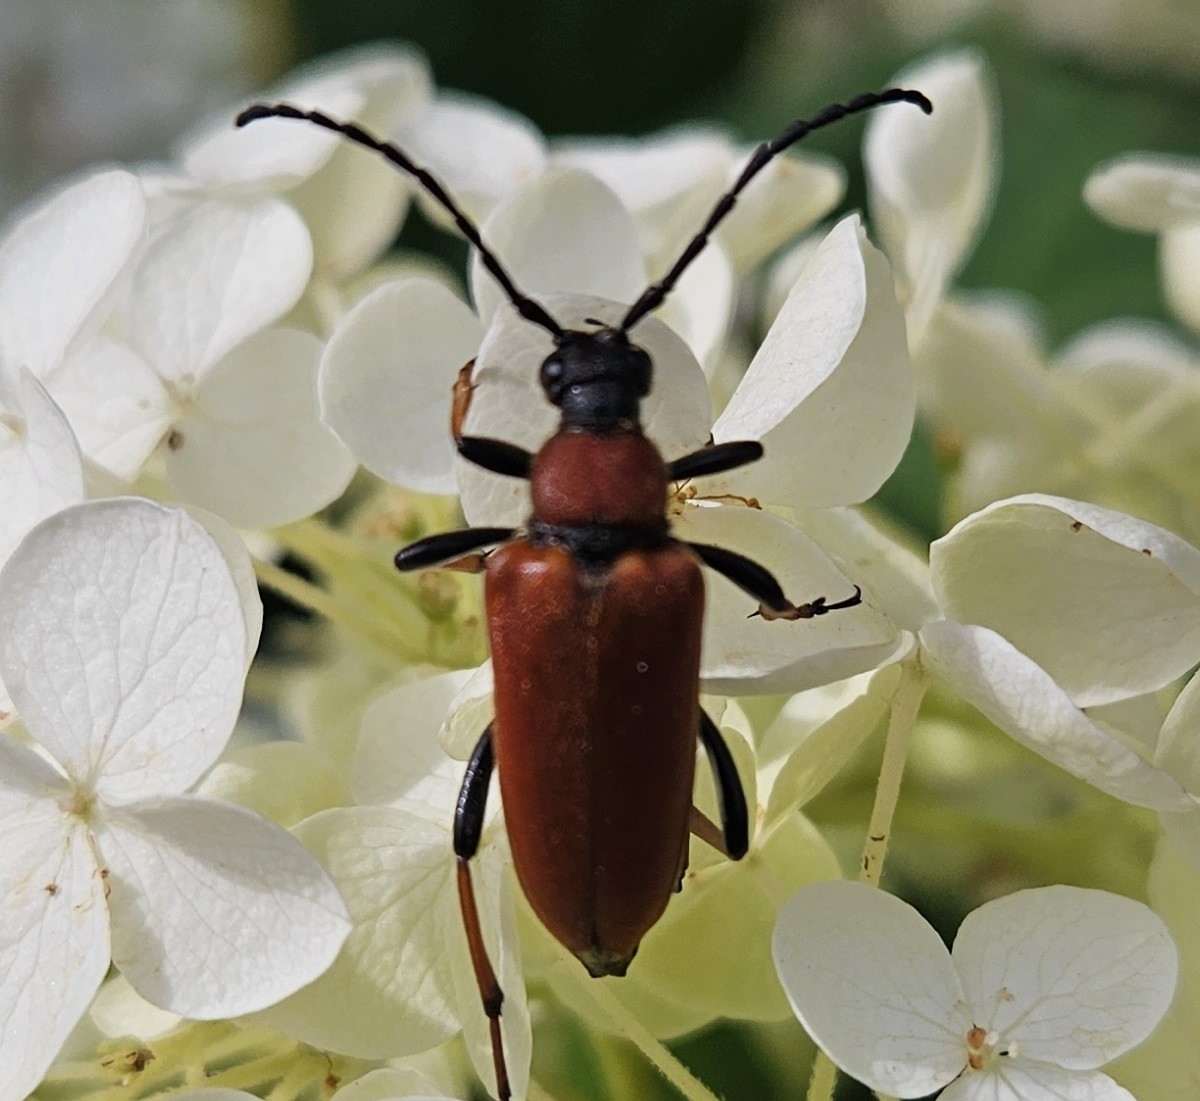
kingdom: Animalia
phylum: Arthropoda
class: Insecta
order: Coleoptera
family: Cerambycidae
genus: Stictoleptura
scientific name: Stictoleptura rubra
